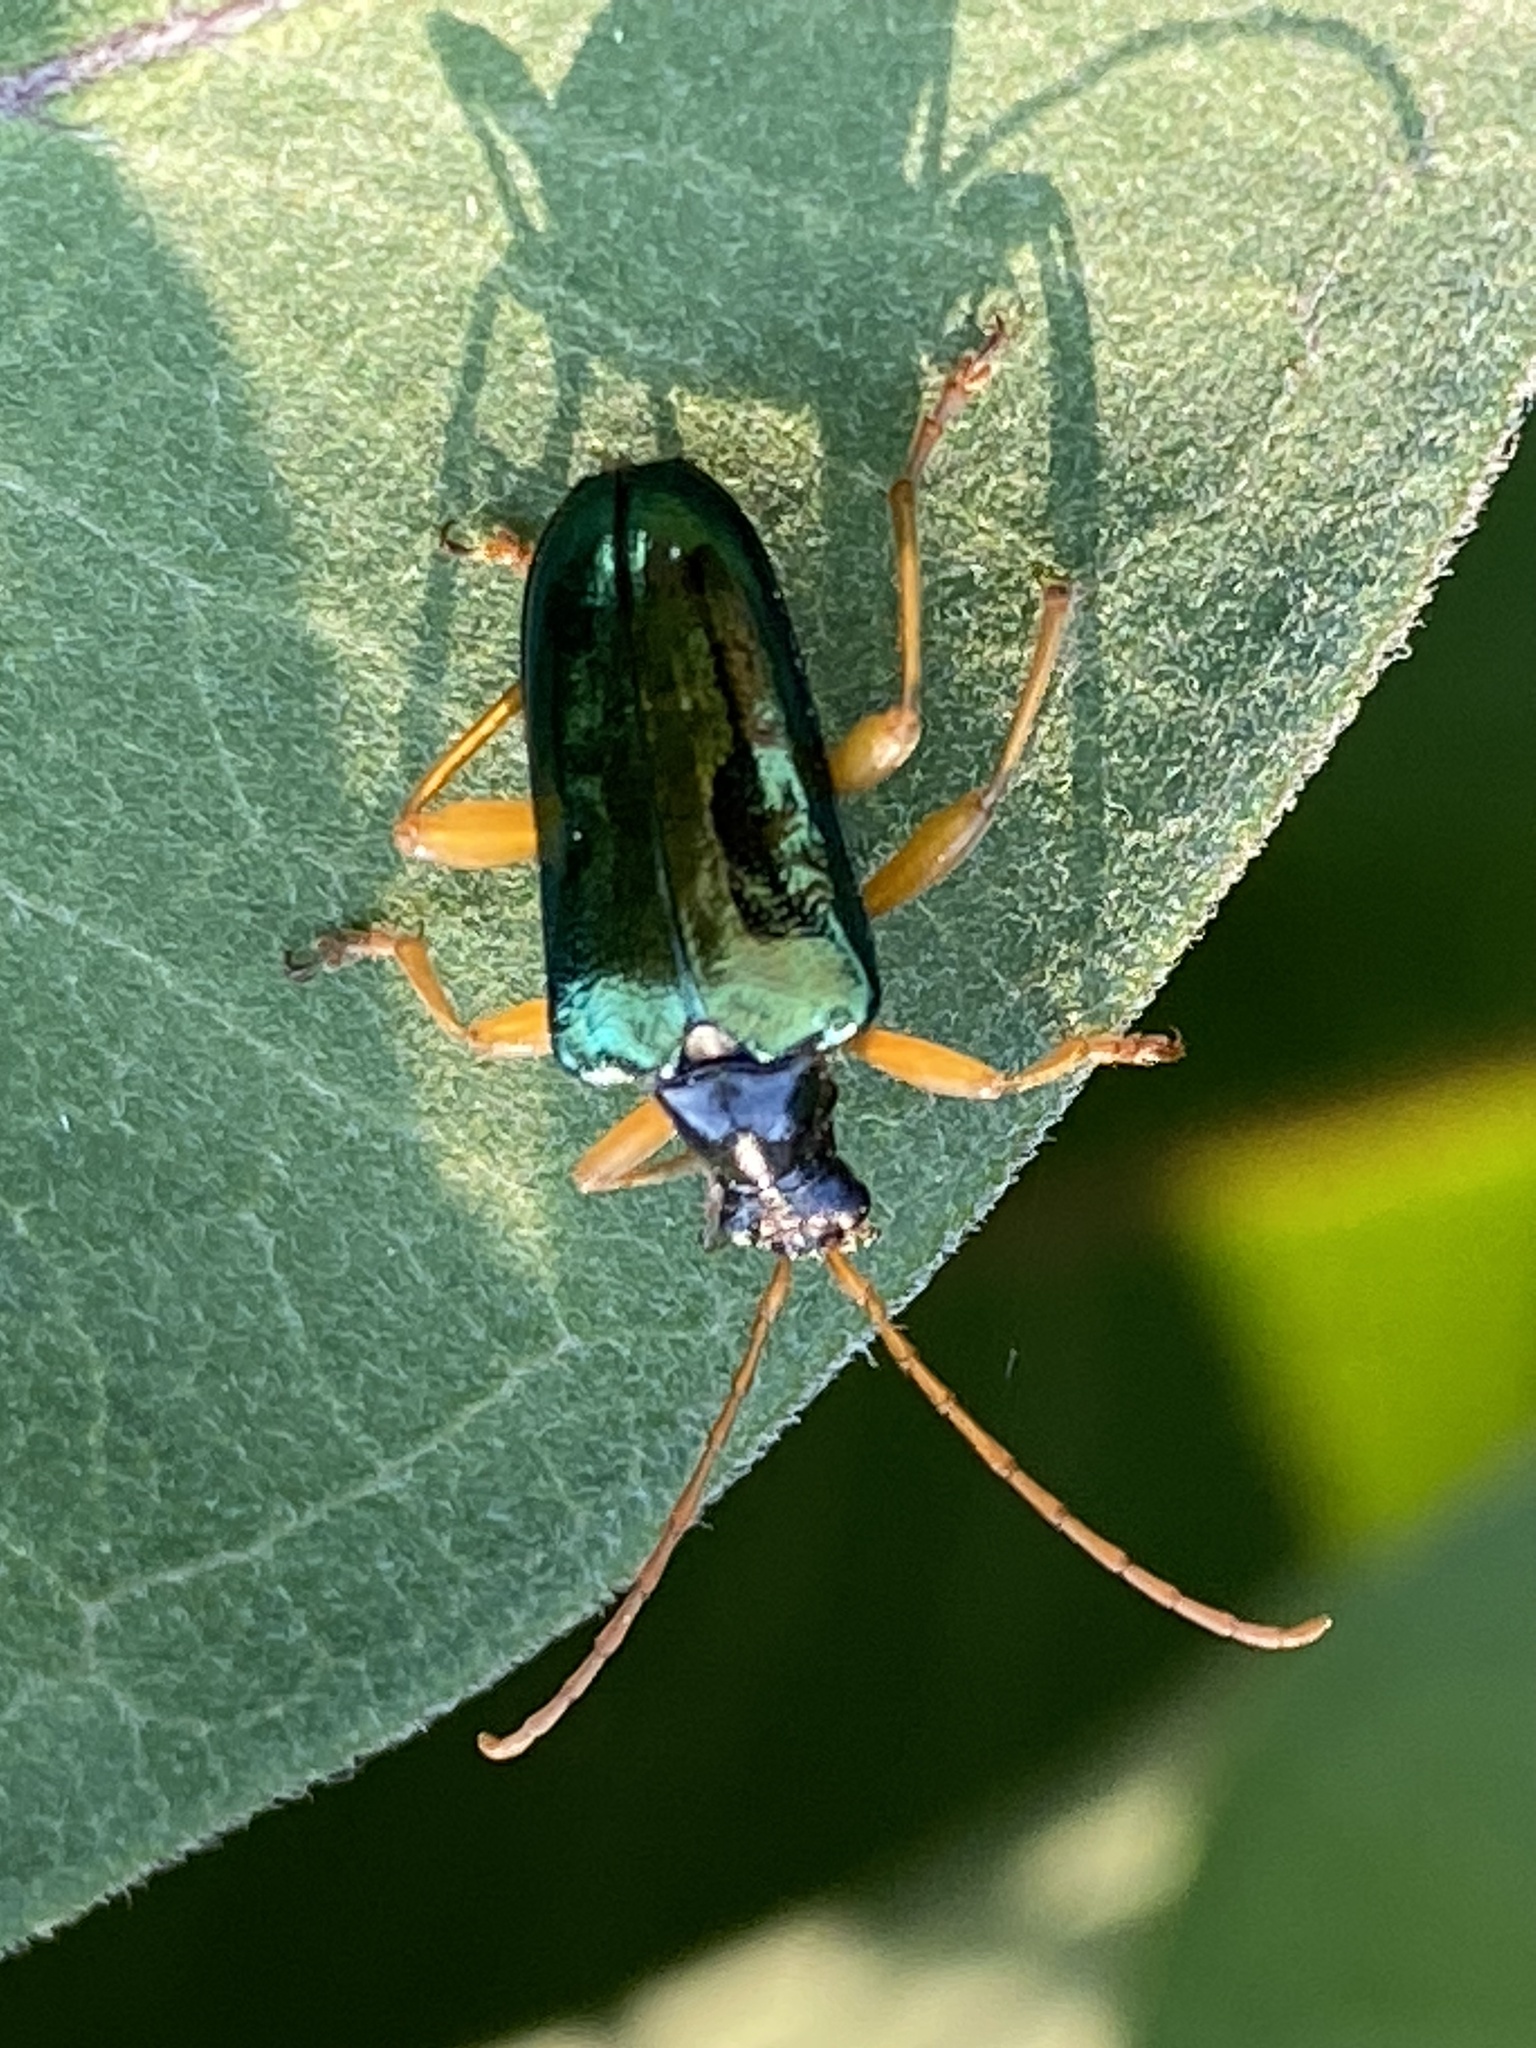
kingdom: Animalia
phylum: Arthropoda
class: Insecta
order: Coleoptera
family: Cerambycidae
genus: Gaurotes
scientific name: Gaurotes cyanipennis
